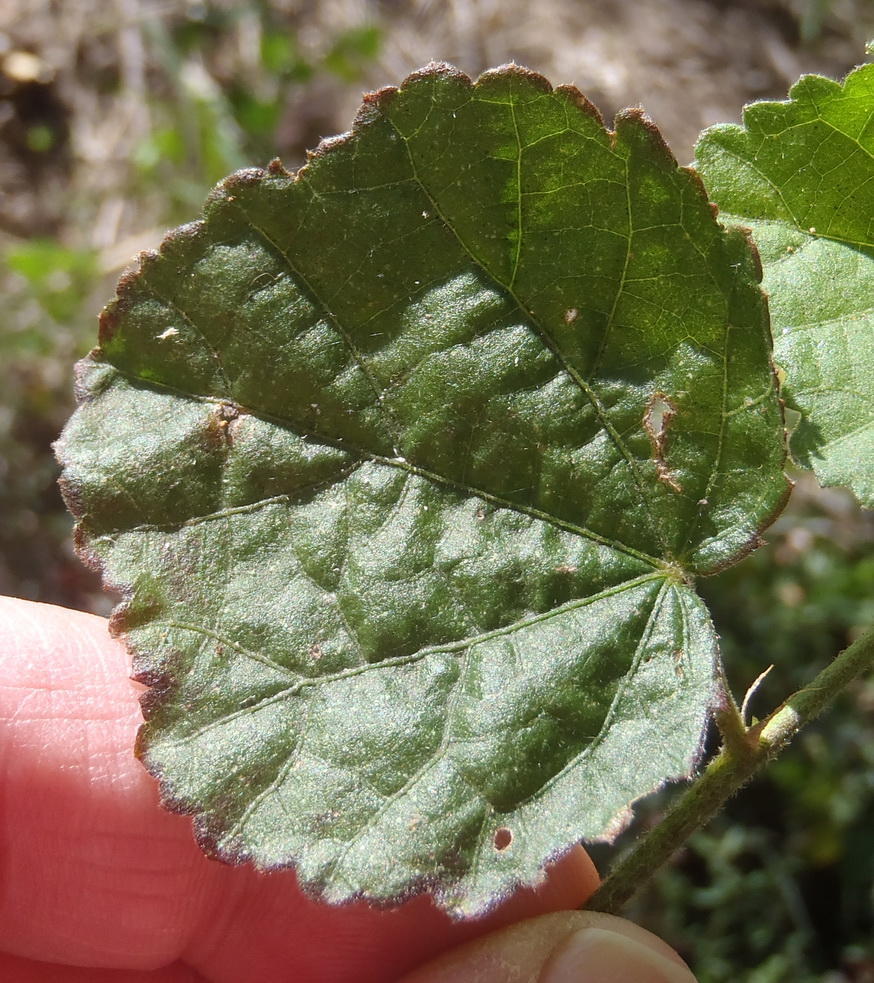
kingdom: Plantae
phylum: Tracheophyta
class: Magnoliopsida
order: Malvales
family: Malvaceae
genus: Hibiscus
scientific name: Hibiscus calyphyllus
